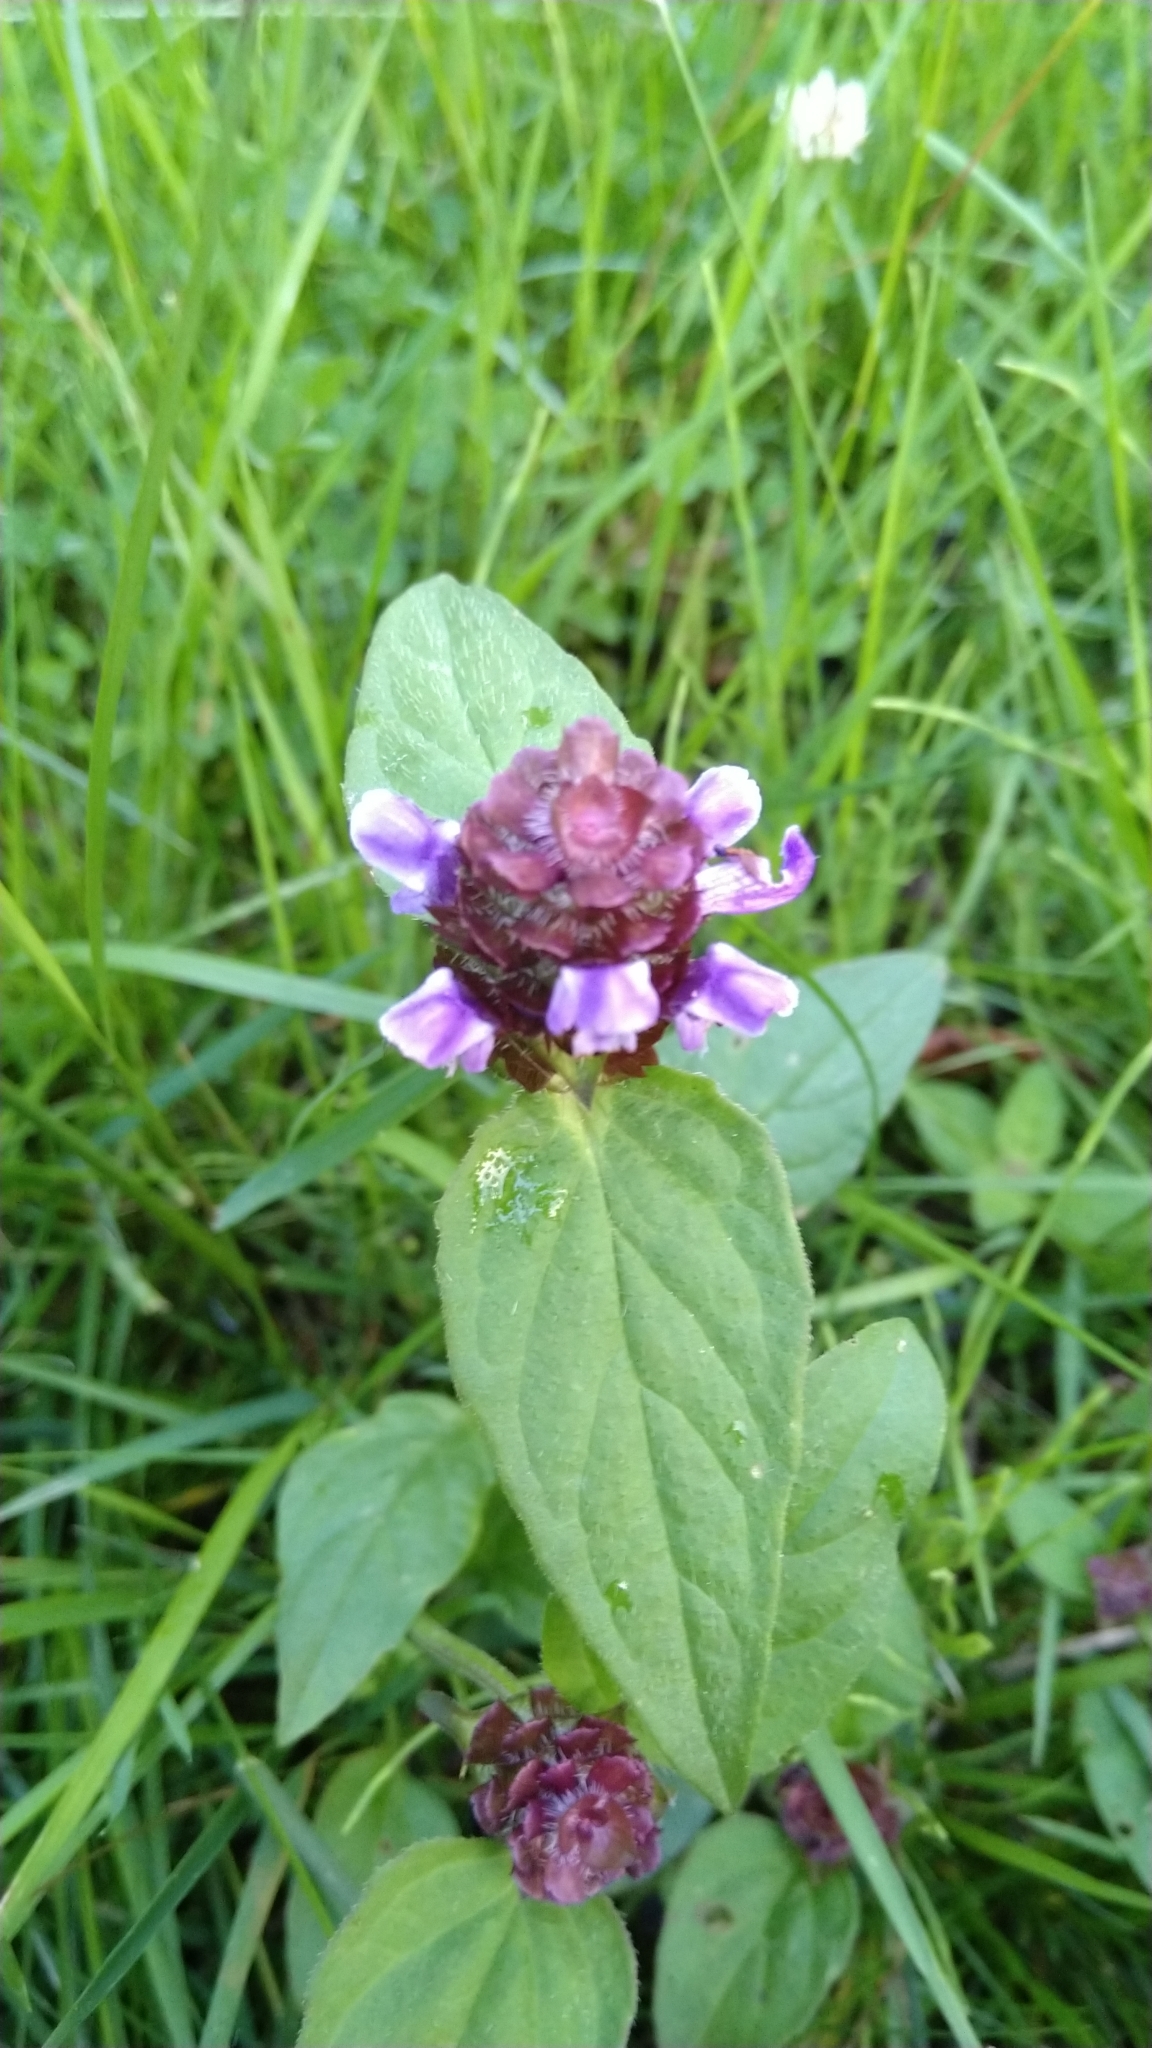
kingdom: Plantae
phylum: Tracheophyta
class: Magnoliopsida
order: Lamiales
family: Lamiaceae
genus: Prunella
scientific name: Prunella vulgaris
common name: Heal-all
